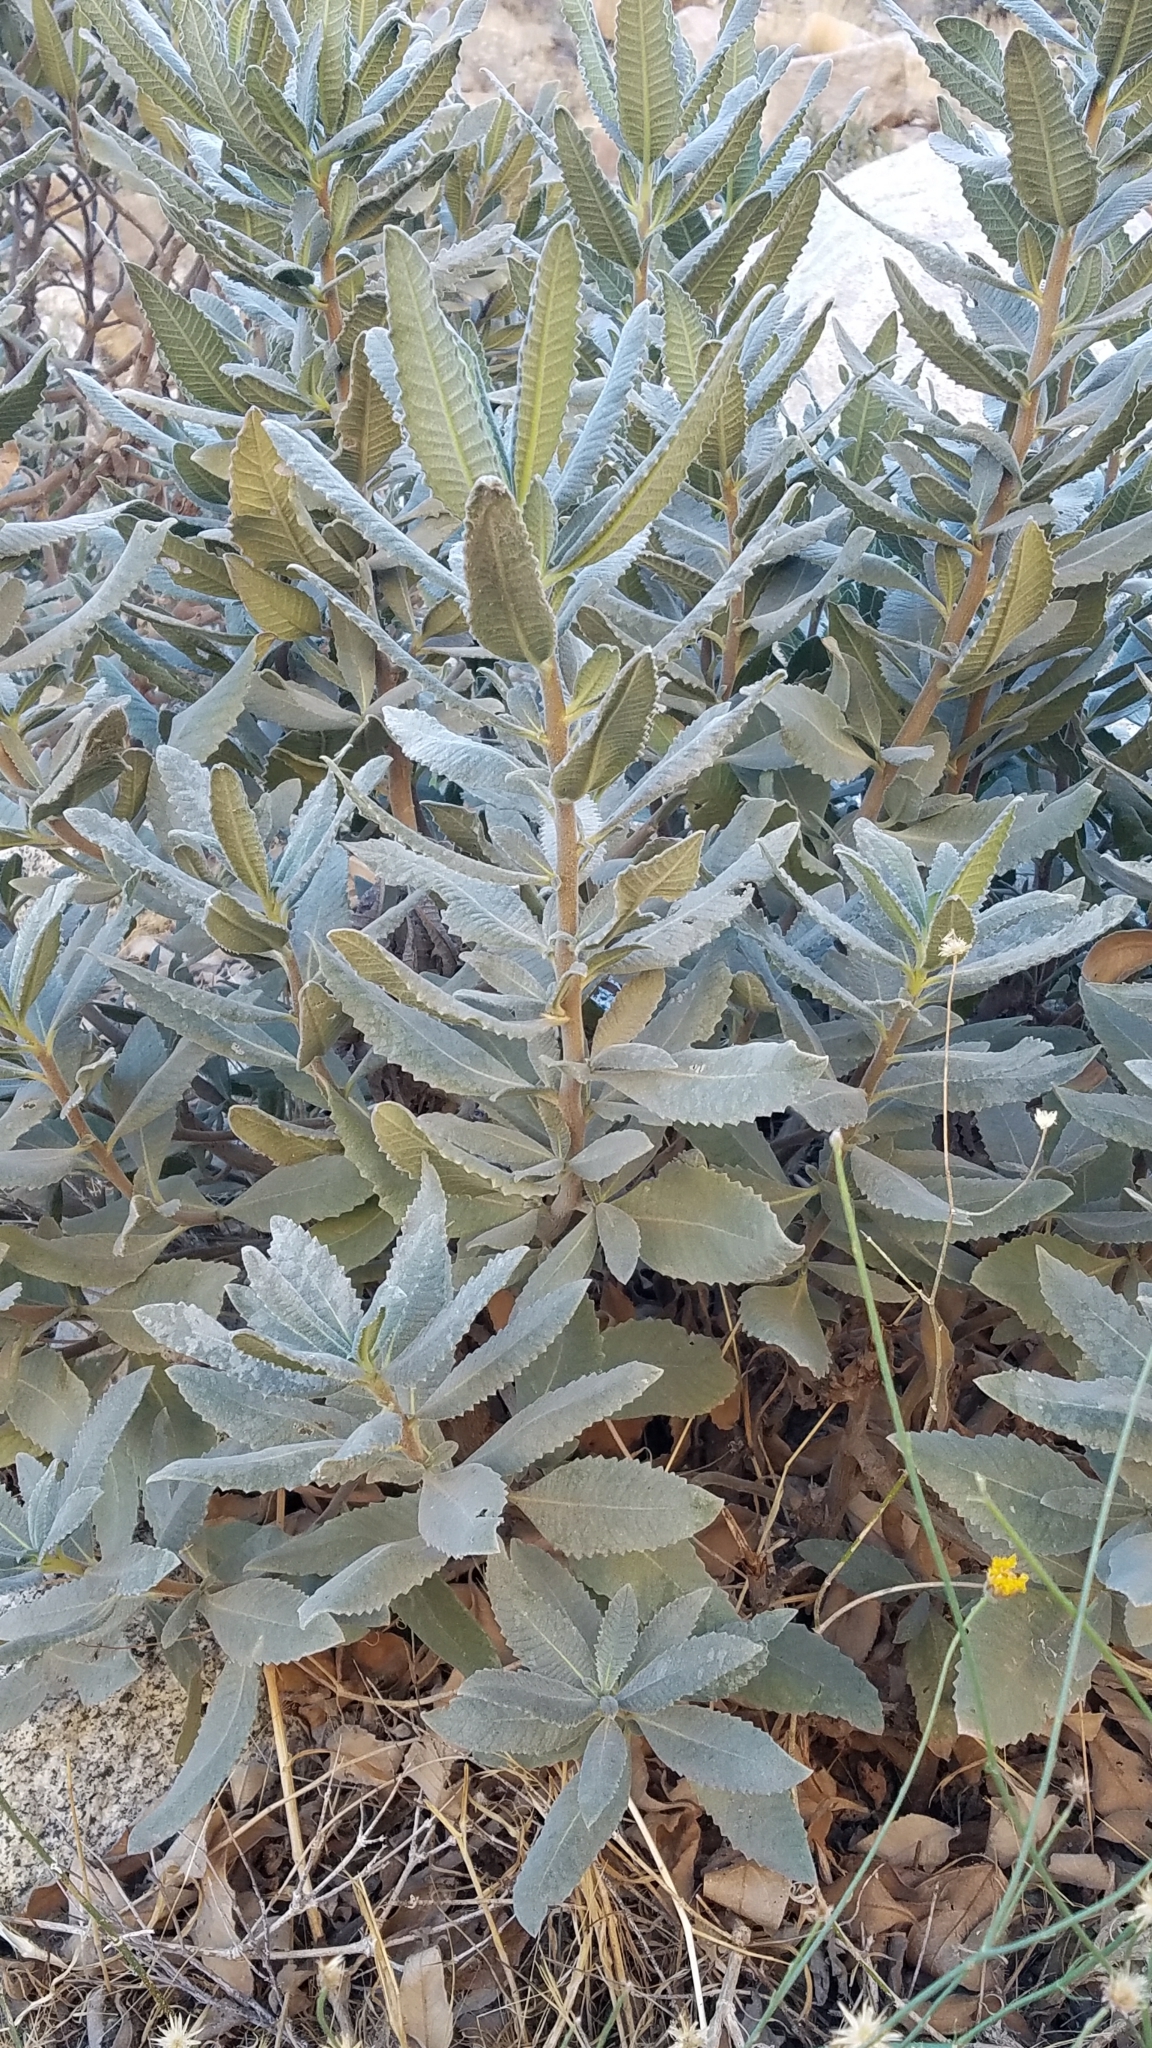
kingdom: Plantae
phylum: Tracheophyta
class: Magnoliopsida
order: Boraginales
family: Namaceae
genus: Eriodictyon
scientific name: Eriodictyon crassifolium
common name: Thick-leaf yerba-santa
